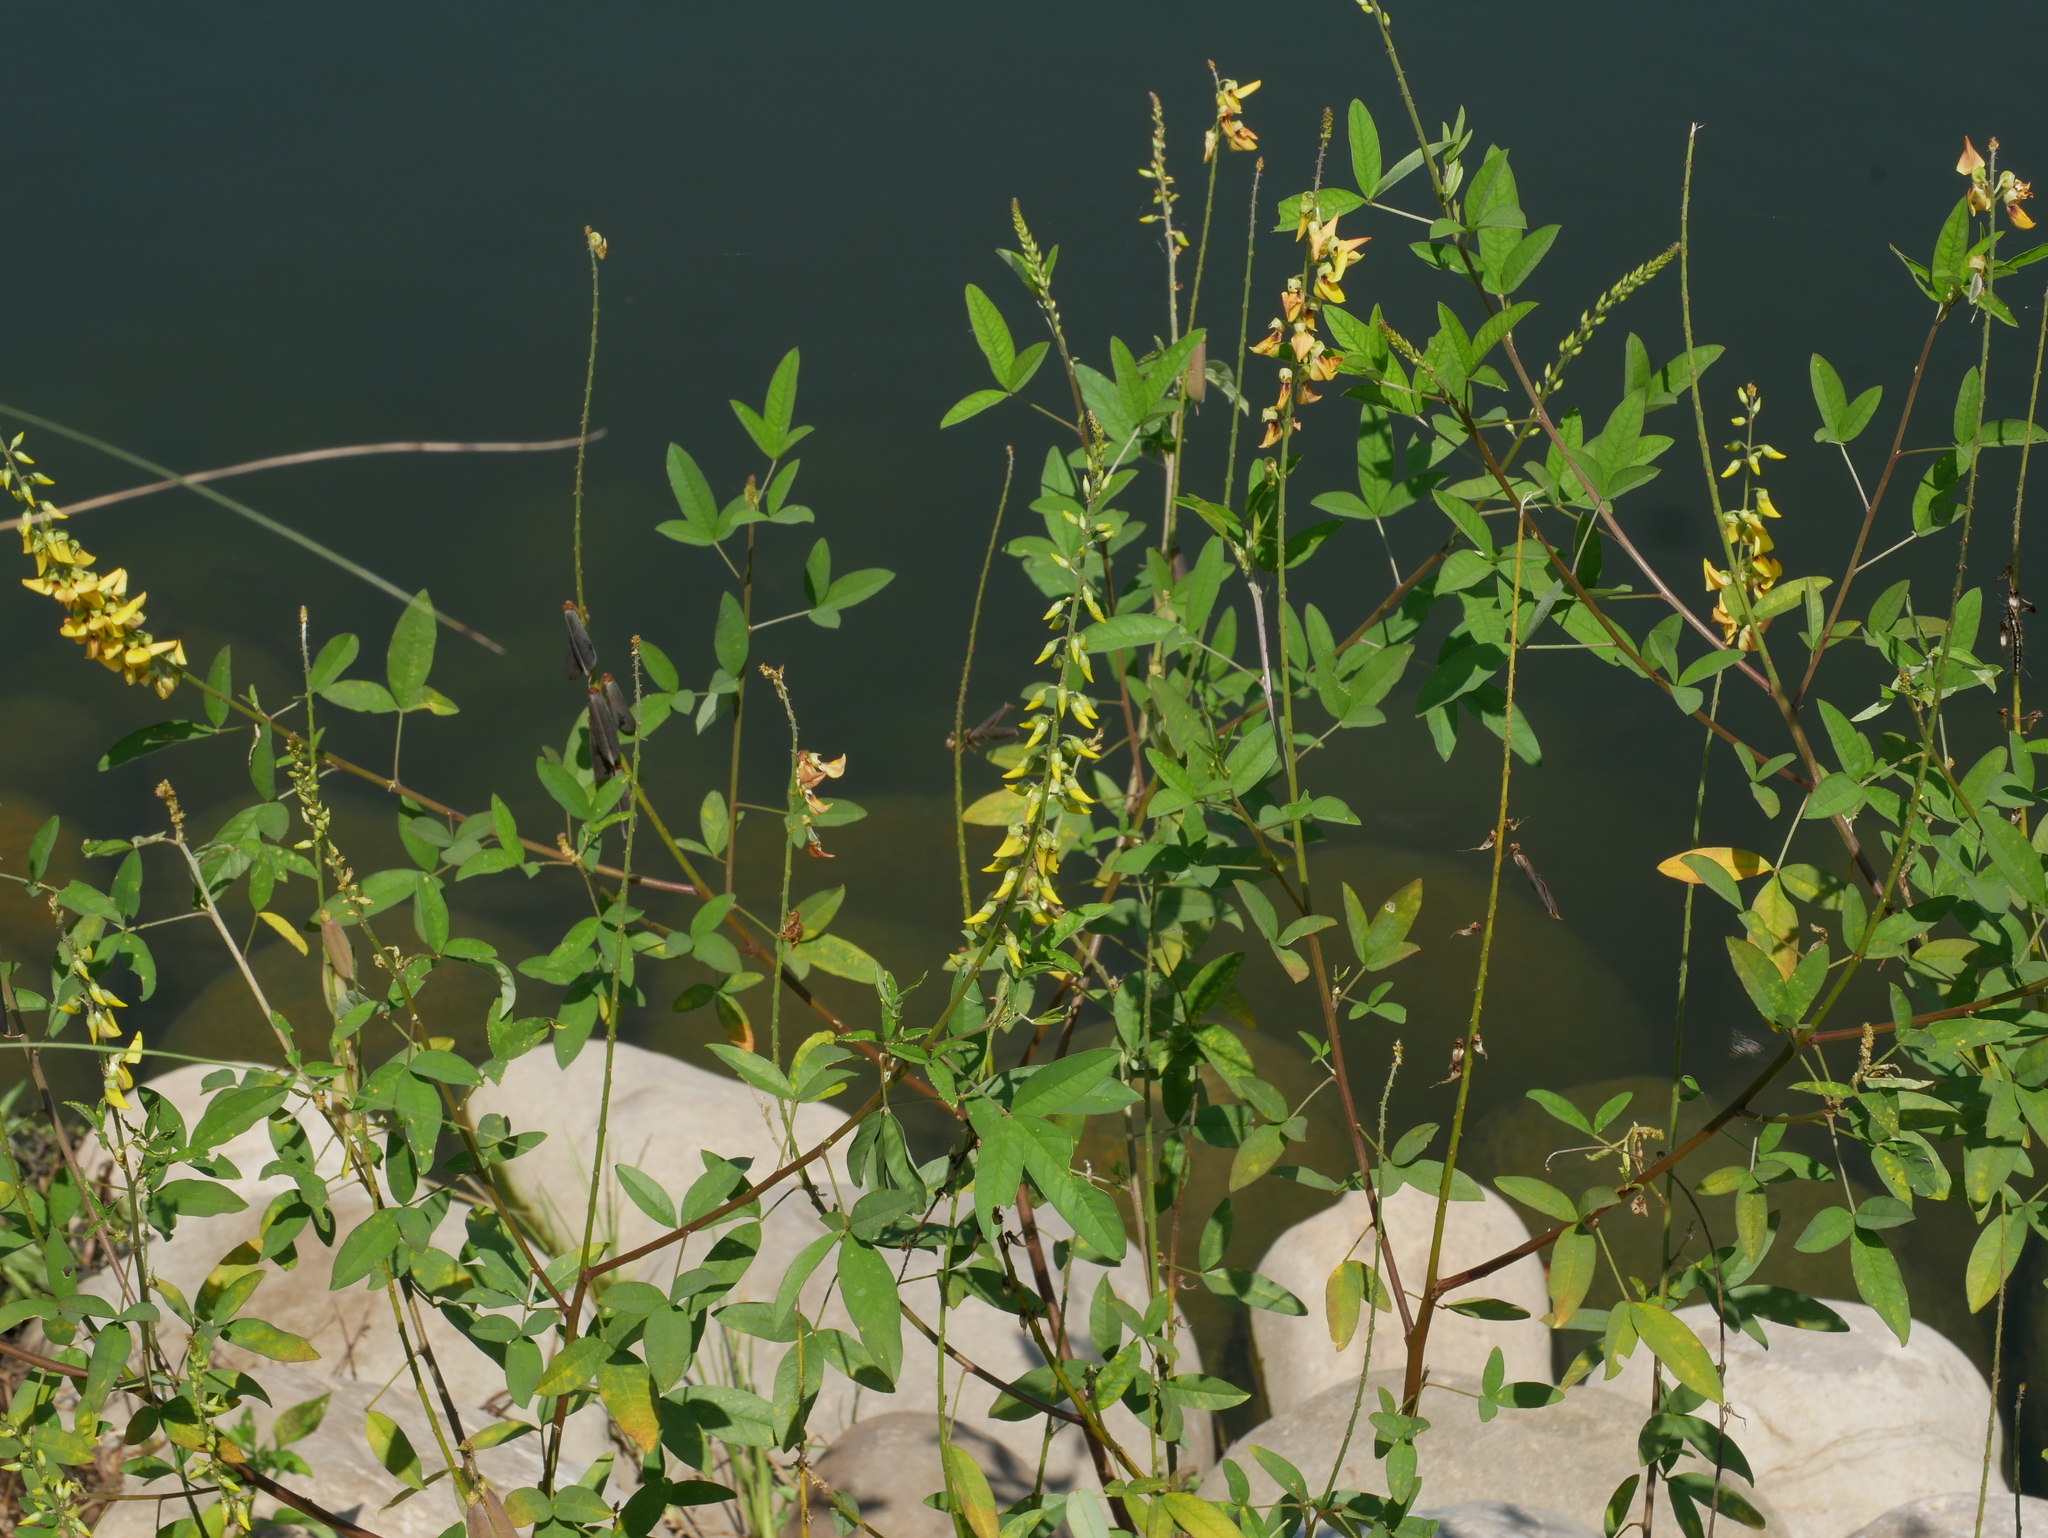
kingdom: Plantae
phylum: Tracheophyta
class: Magnoliopsida
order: Fabales
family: Fabaceae
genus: Crotalaria
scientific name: Crotalaria trichotoma
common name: West indian rattlebox
